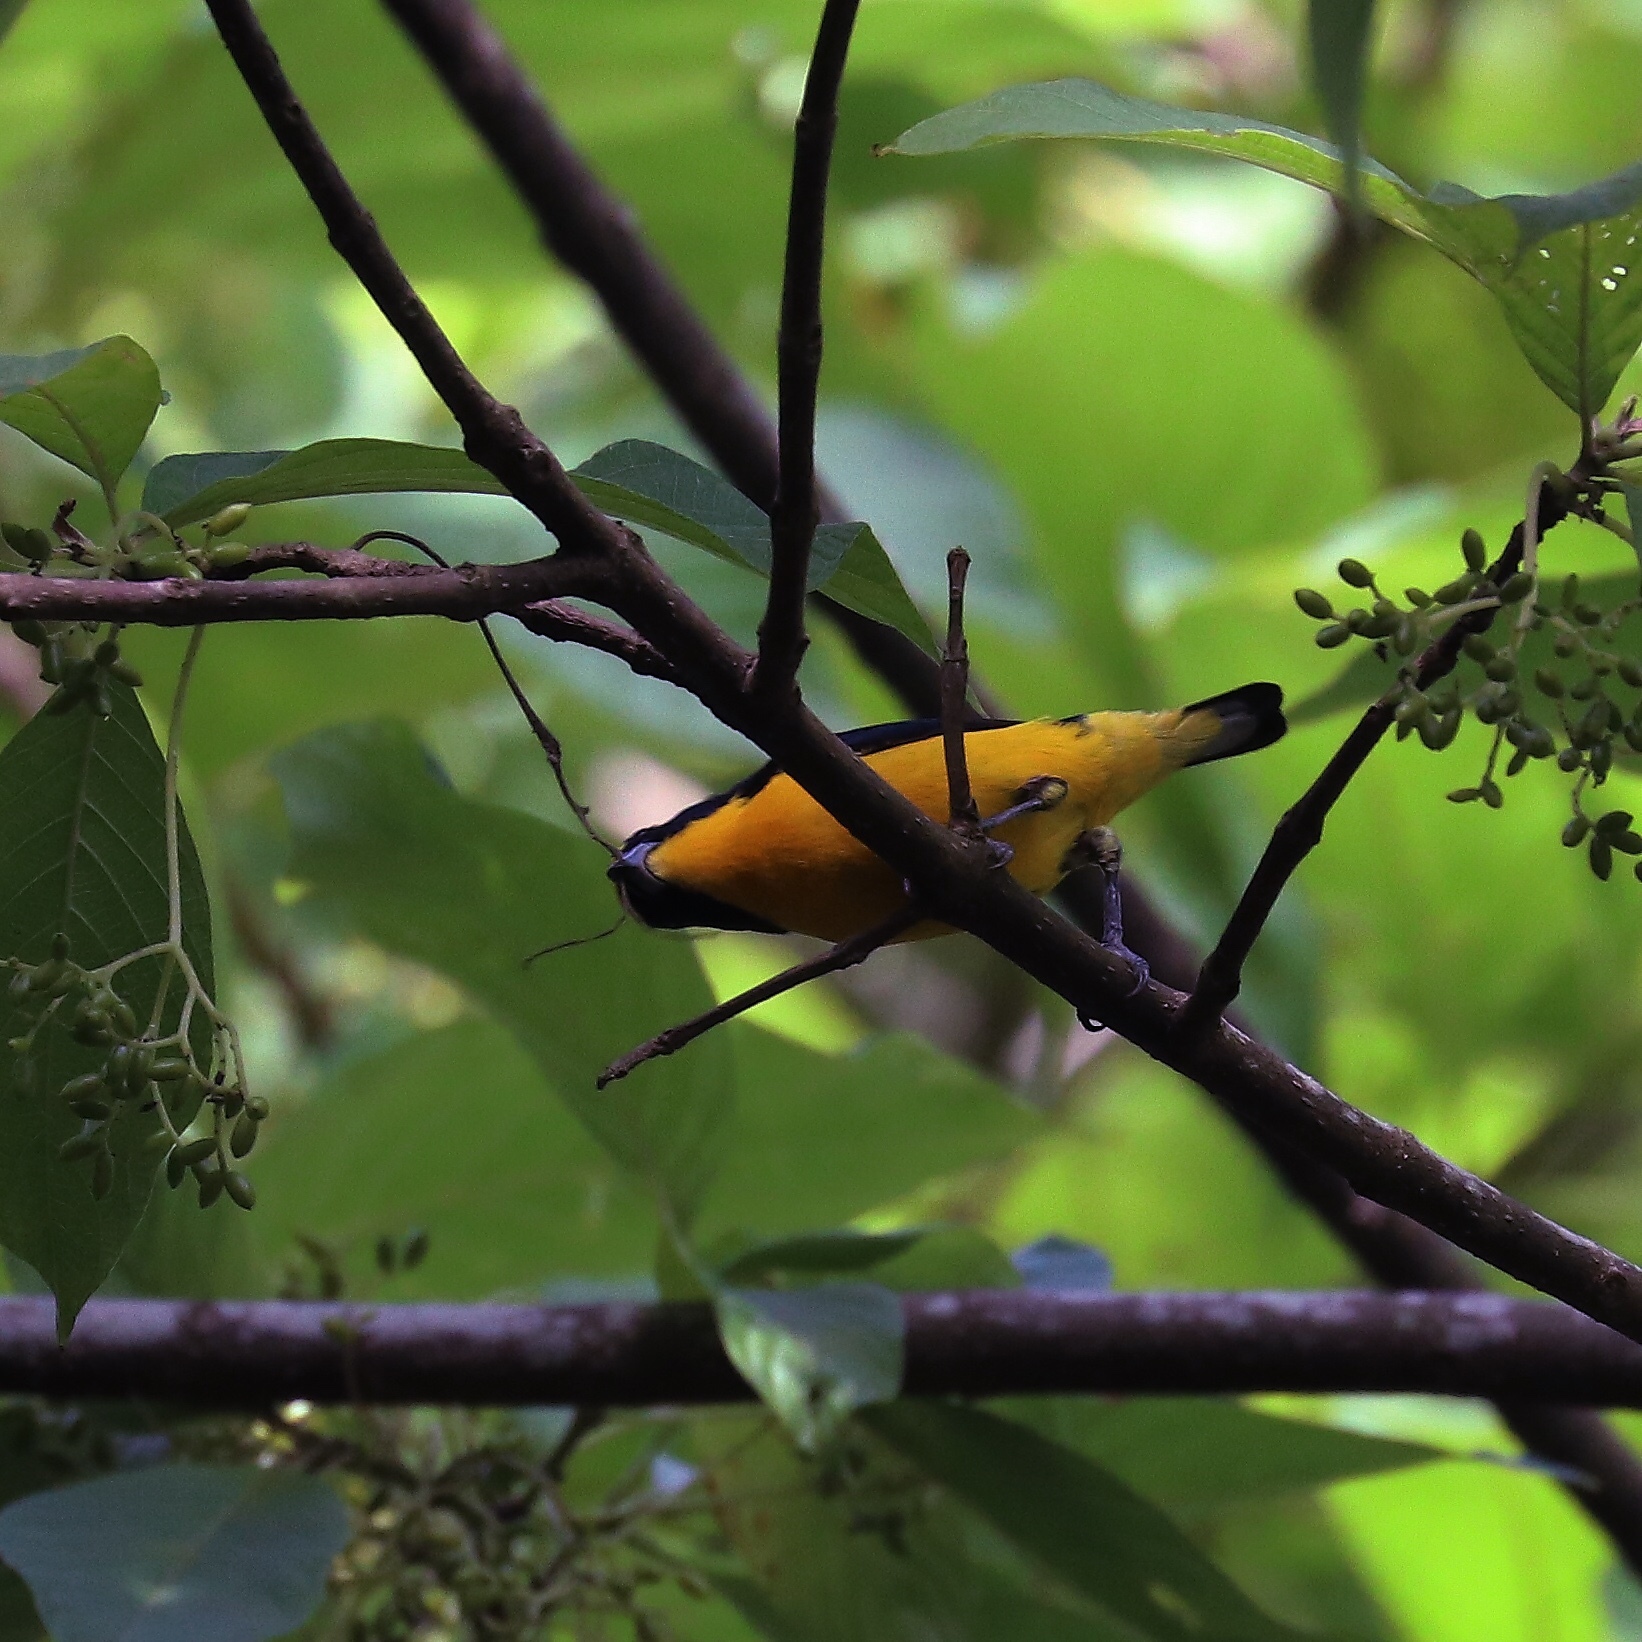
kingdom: Animalia
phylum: Chordata
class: Aves
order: Passeriformes
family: Fringillidae
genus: Euphonia
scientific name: Euphonia laniirostris
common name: Thick-billed euphonia
